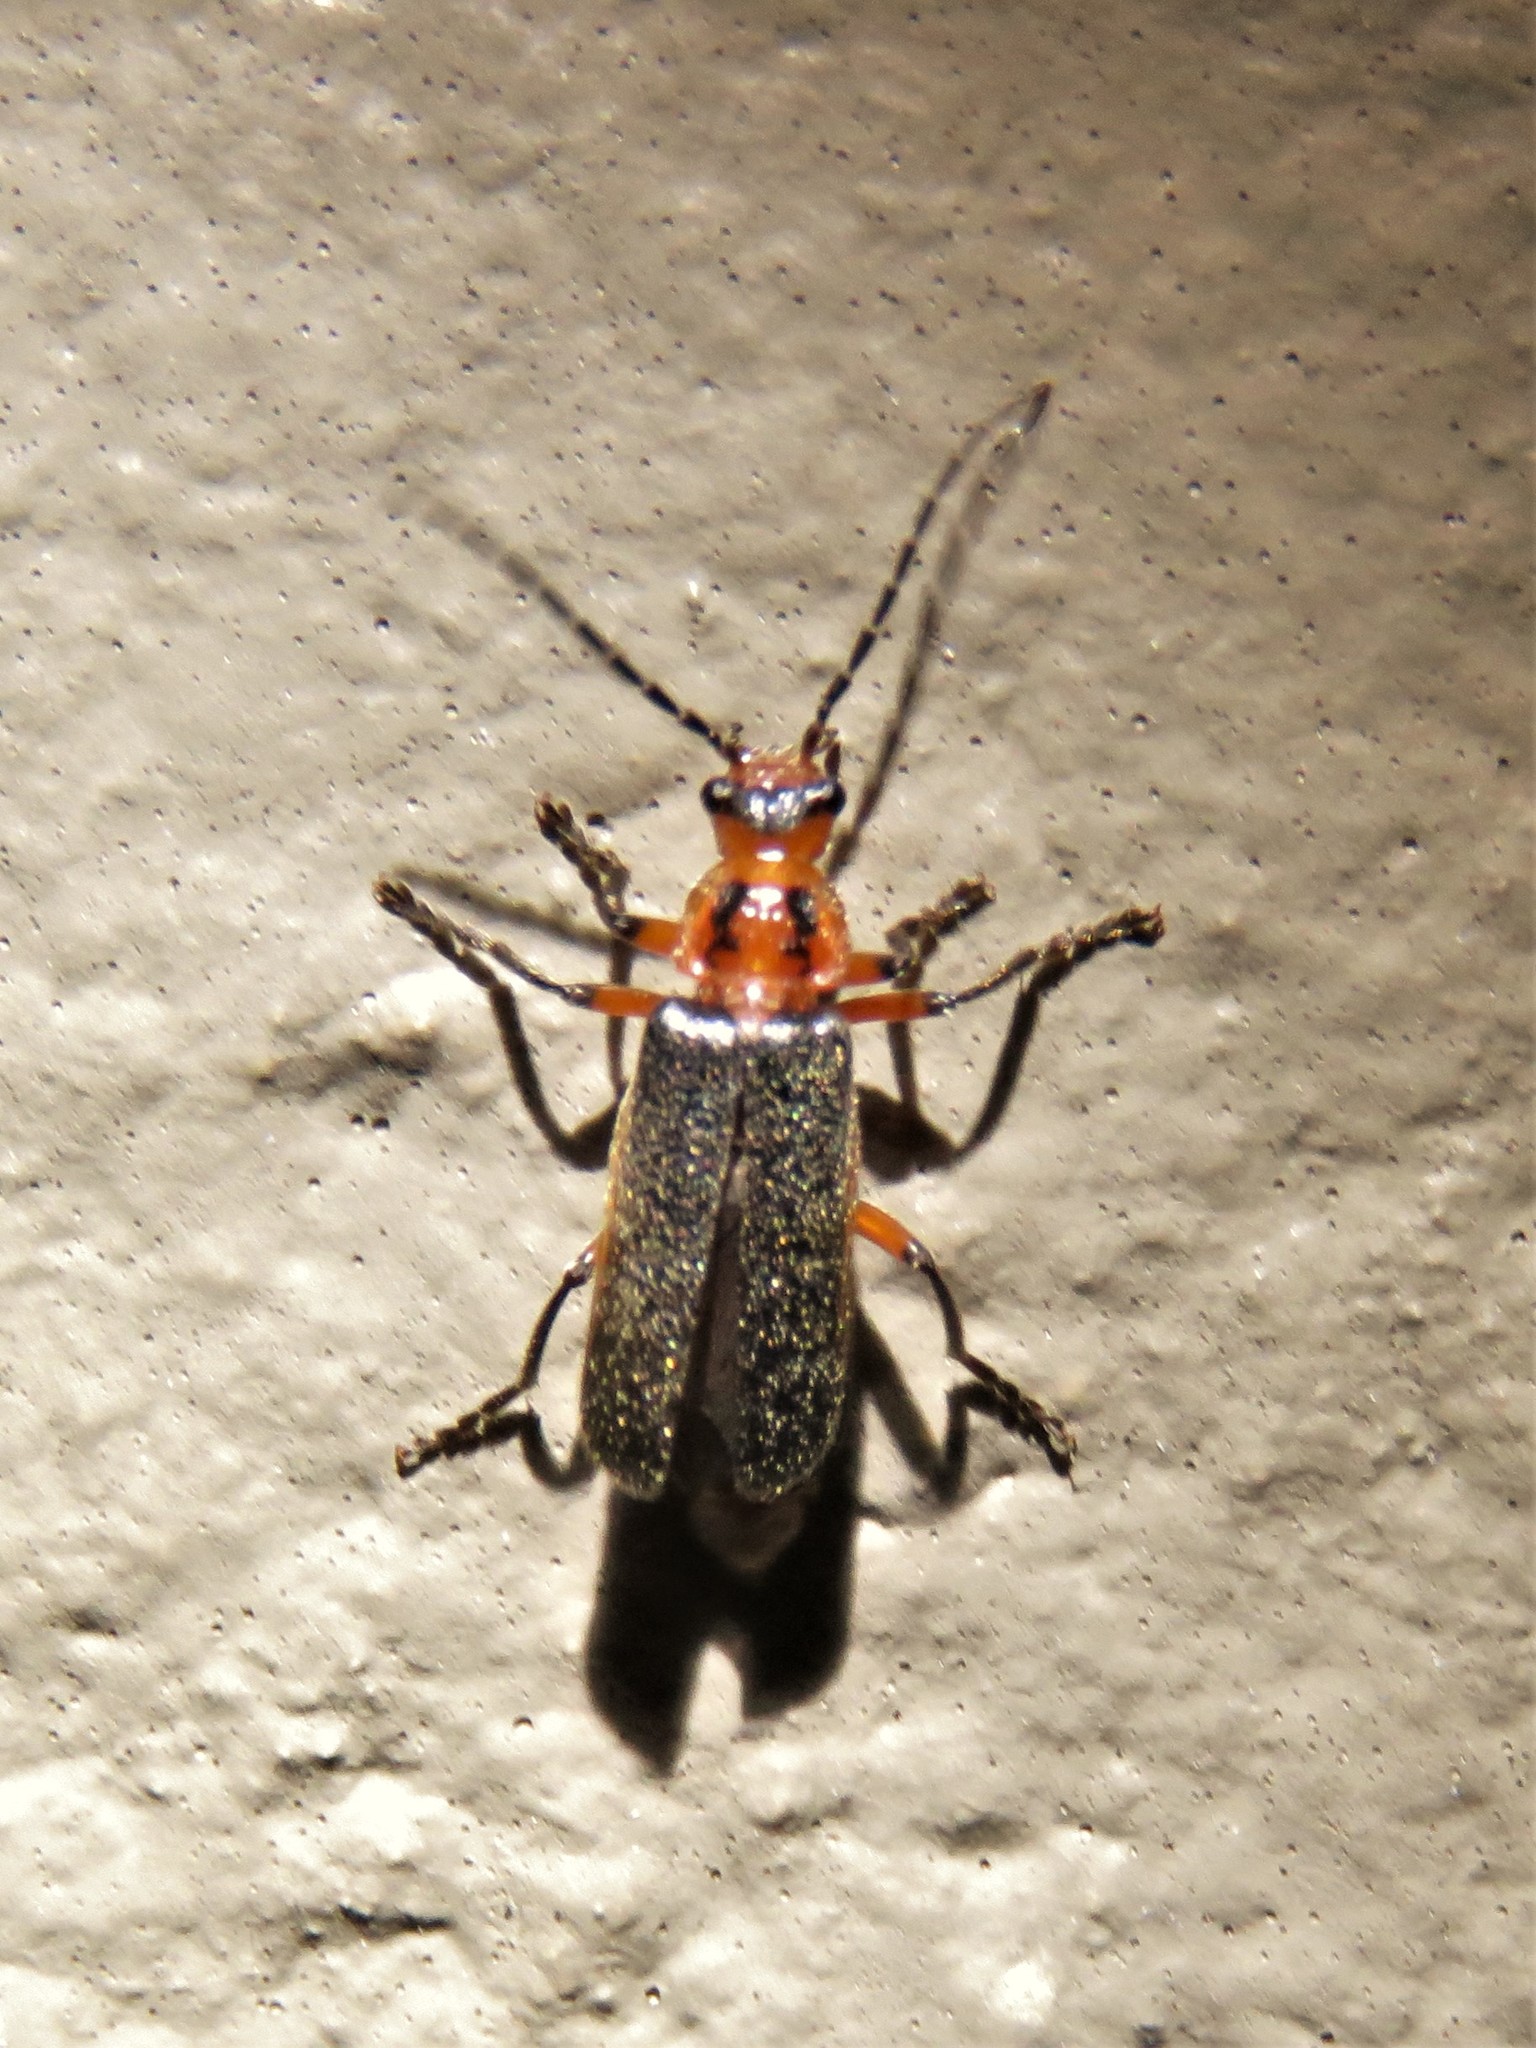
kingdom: Animalia
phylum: Arthropoda
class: Insecta
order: Coleoptera
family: Cantharidae
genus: Atalantycha
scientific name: Atalantycha bilineata
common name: Two-lined leatherwing
